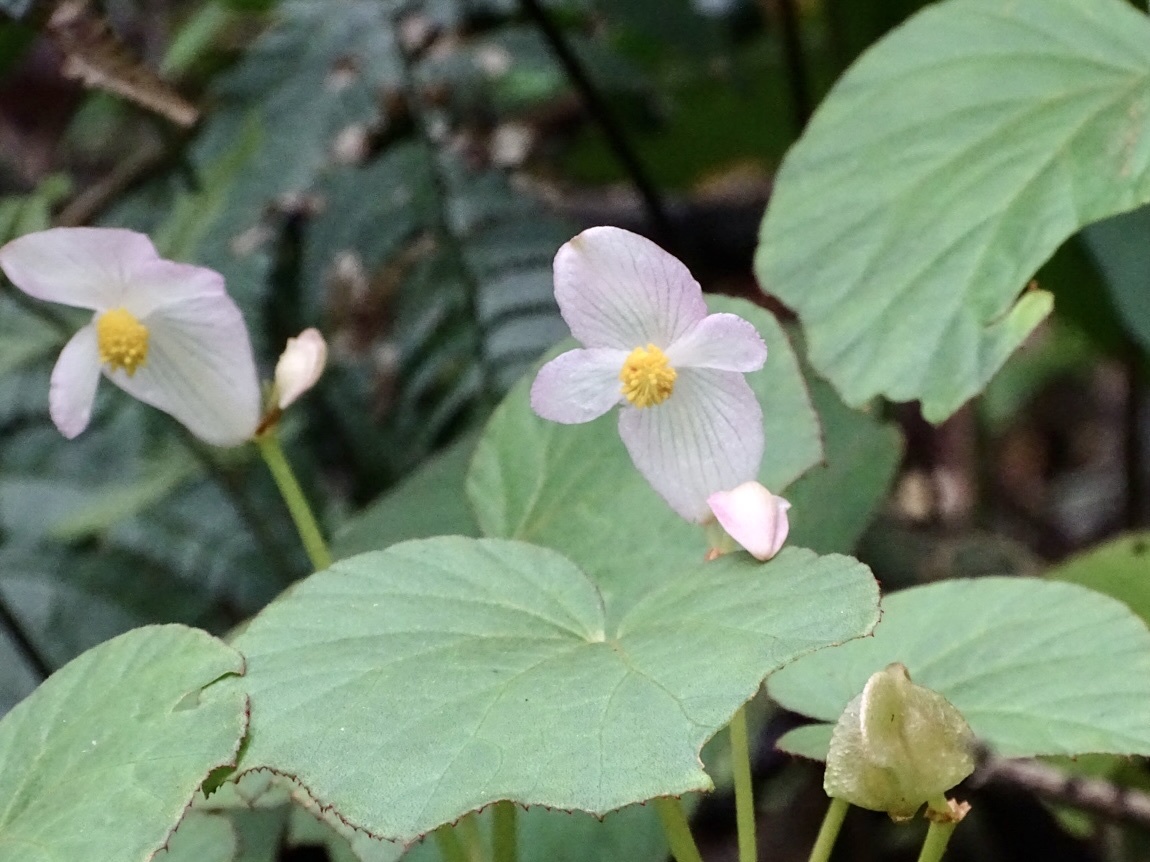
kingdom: Plantae
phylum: Tracheophyta
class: Magnoliopsida
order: Cucurbitales
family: Begoniaceae
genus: Begonia
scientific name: Begonia palmata
